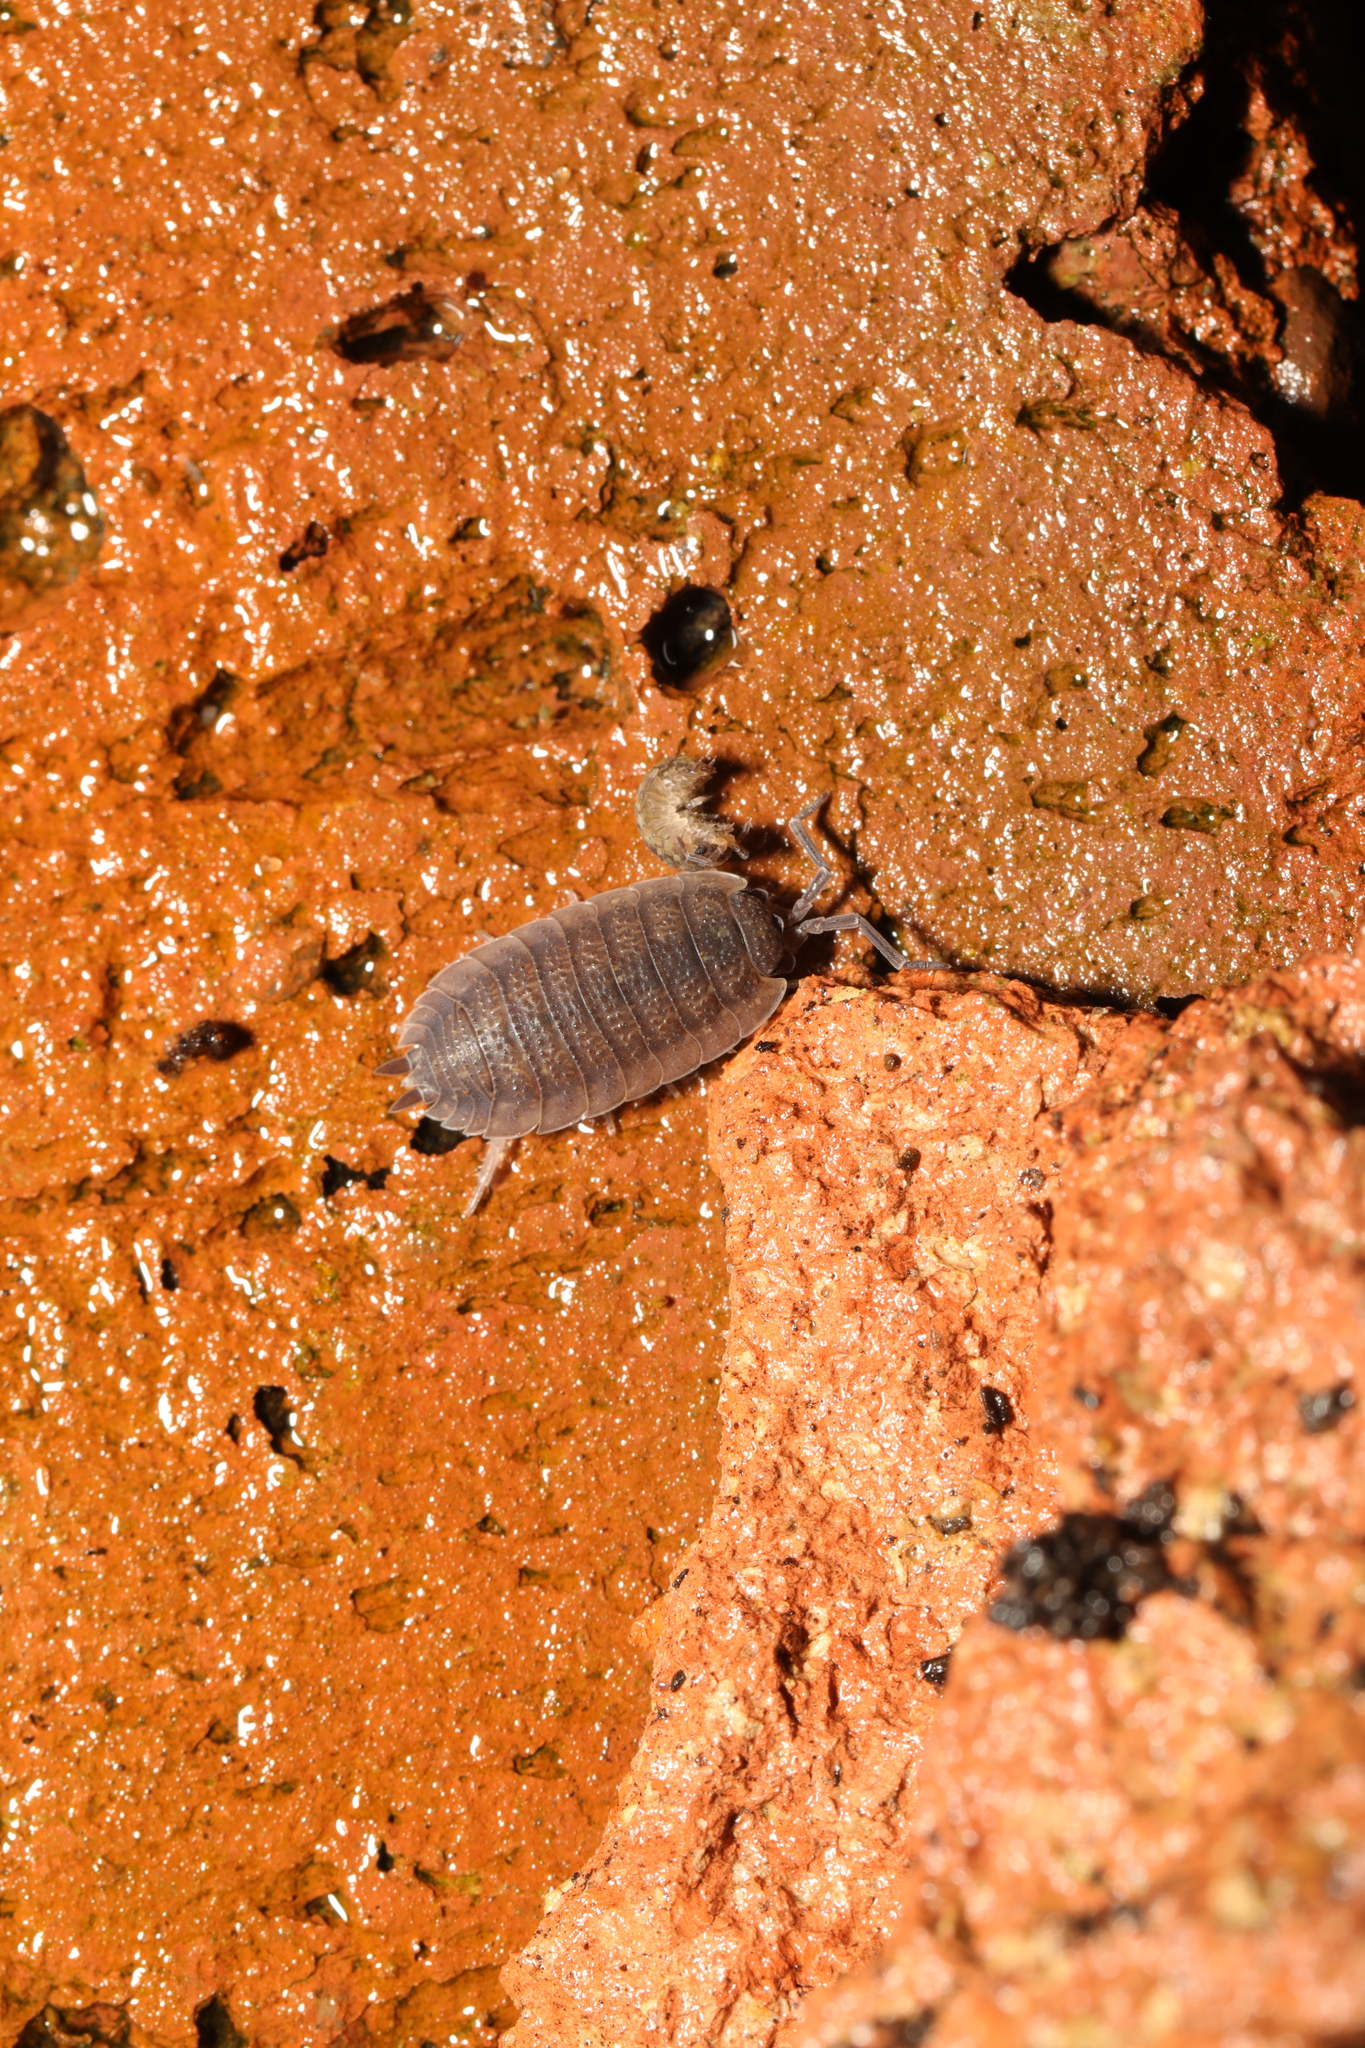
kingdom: Animalia
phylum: Arthropoda
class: Malacostraca
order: Isopoda
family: Porcellionidae
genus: Porcellio
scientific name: Porcellio scaber
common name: Common rough woodlouse
